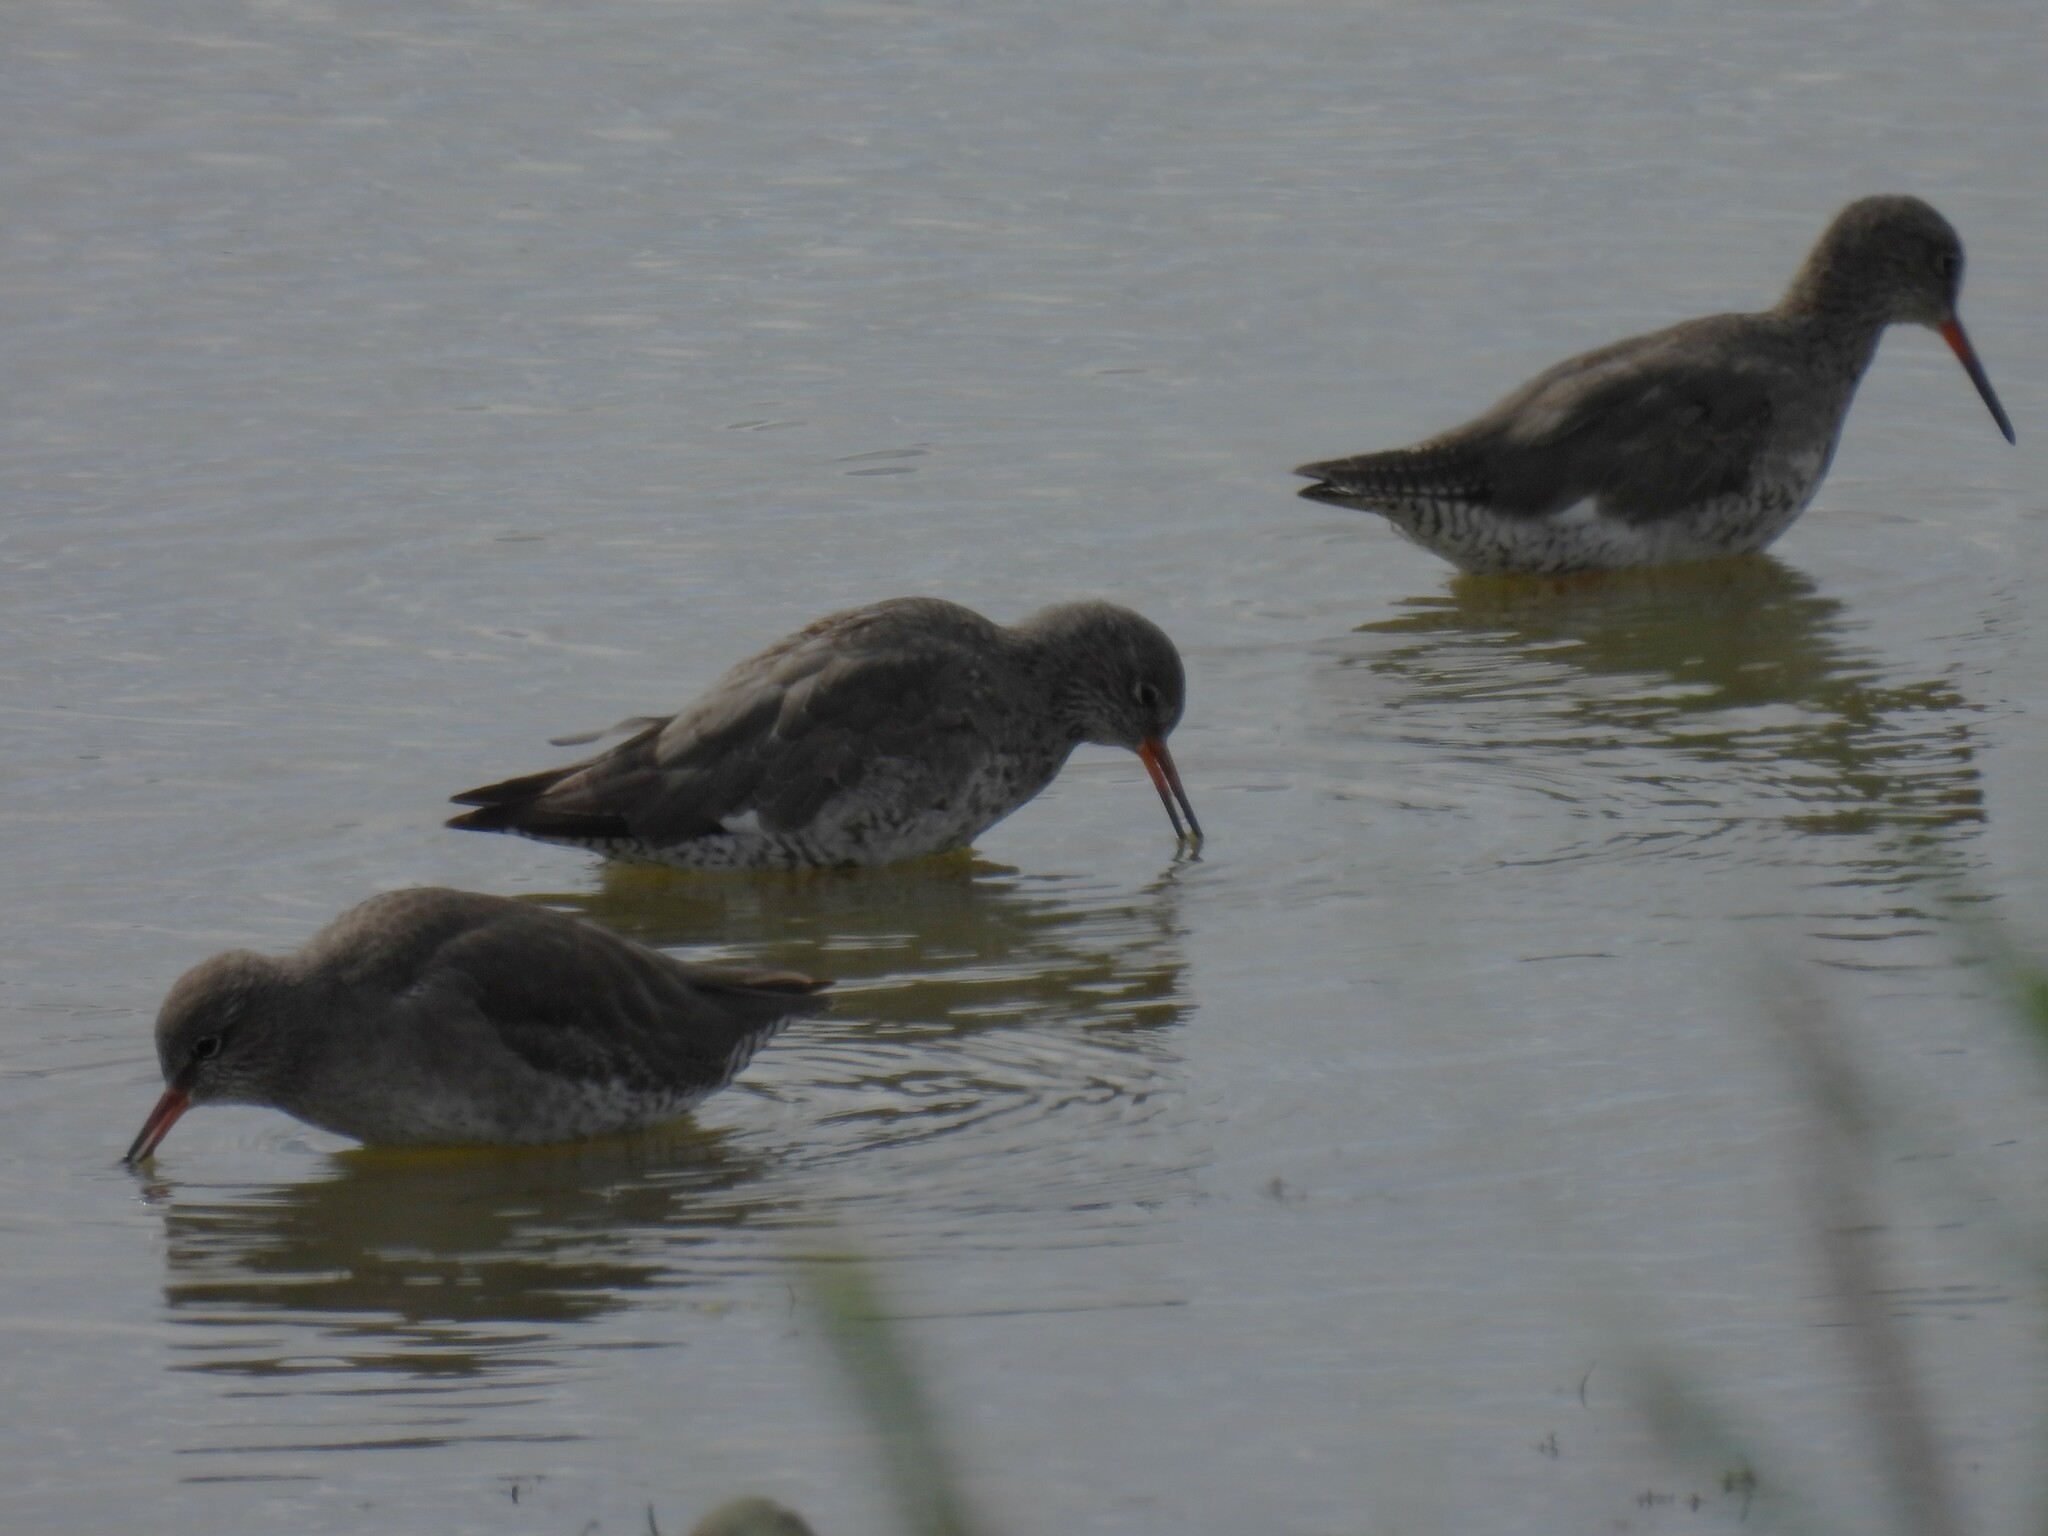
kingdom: Animalia
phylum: Chordata
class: Aves
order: Charadriiformes
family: Scolopacidae
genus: Tringa
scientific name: Tringa totanus
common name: Common redshank
